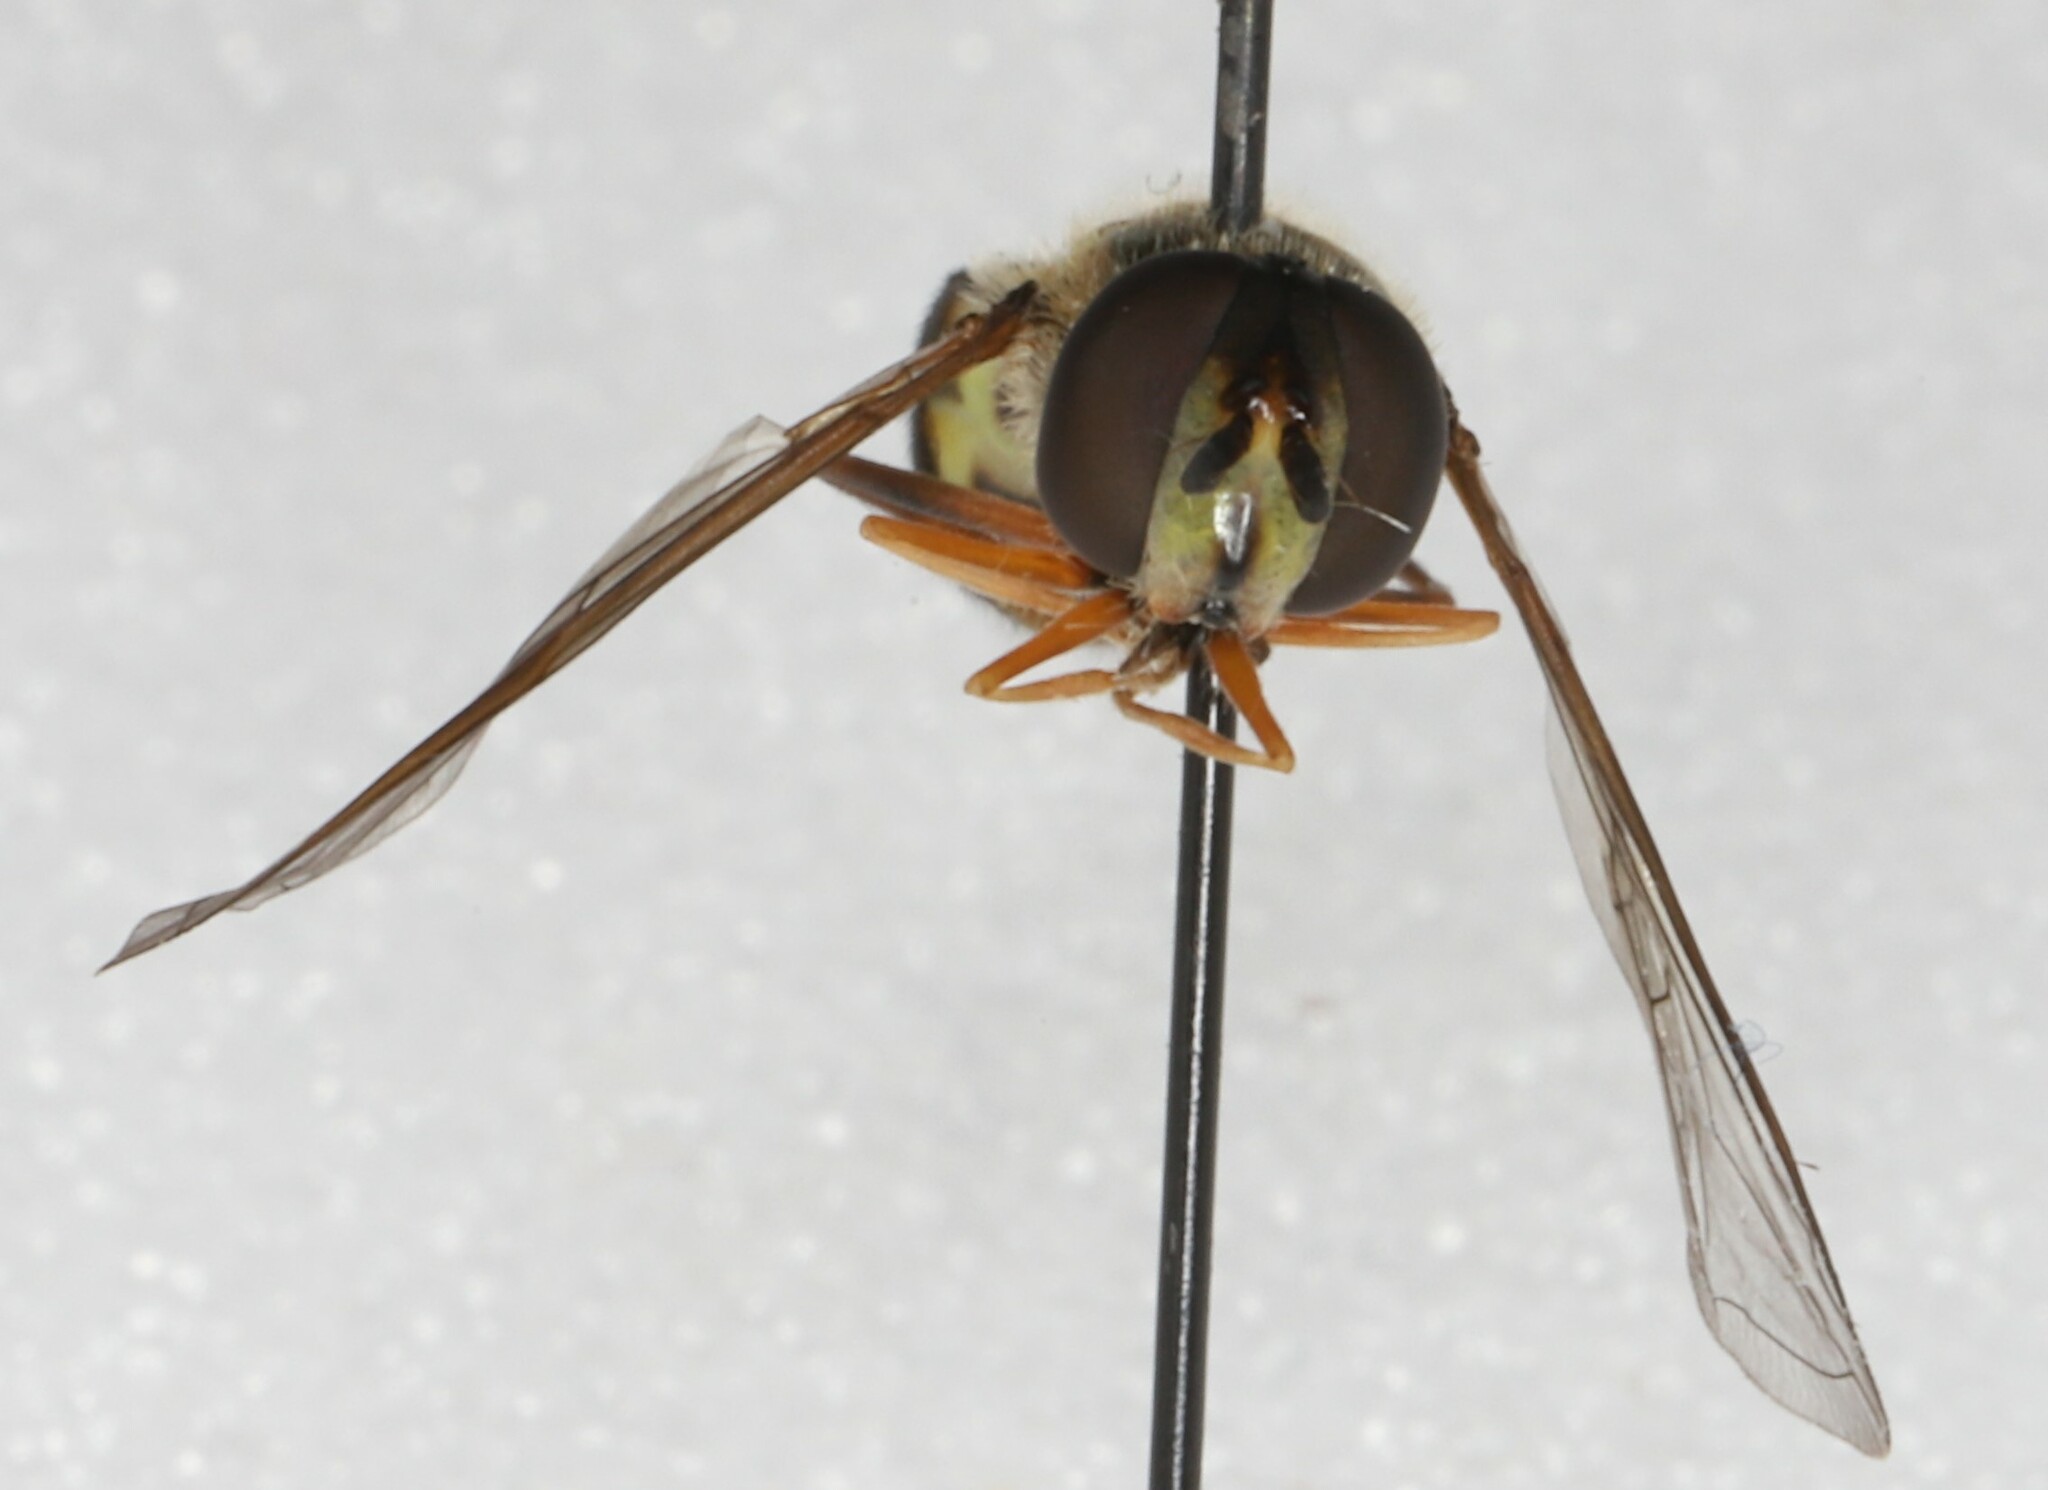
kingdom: Animalia
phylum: Arthropoda
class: Insecta
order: Diptera
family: Syrphidae
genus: Eupeodes
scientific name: Eupeodes
